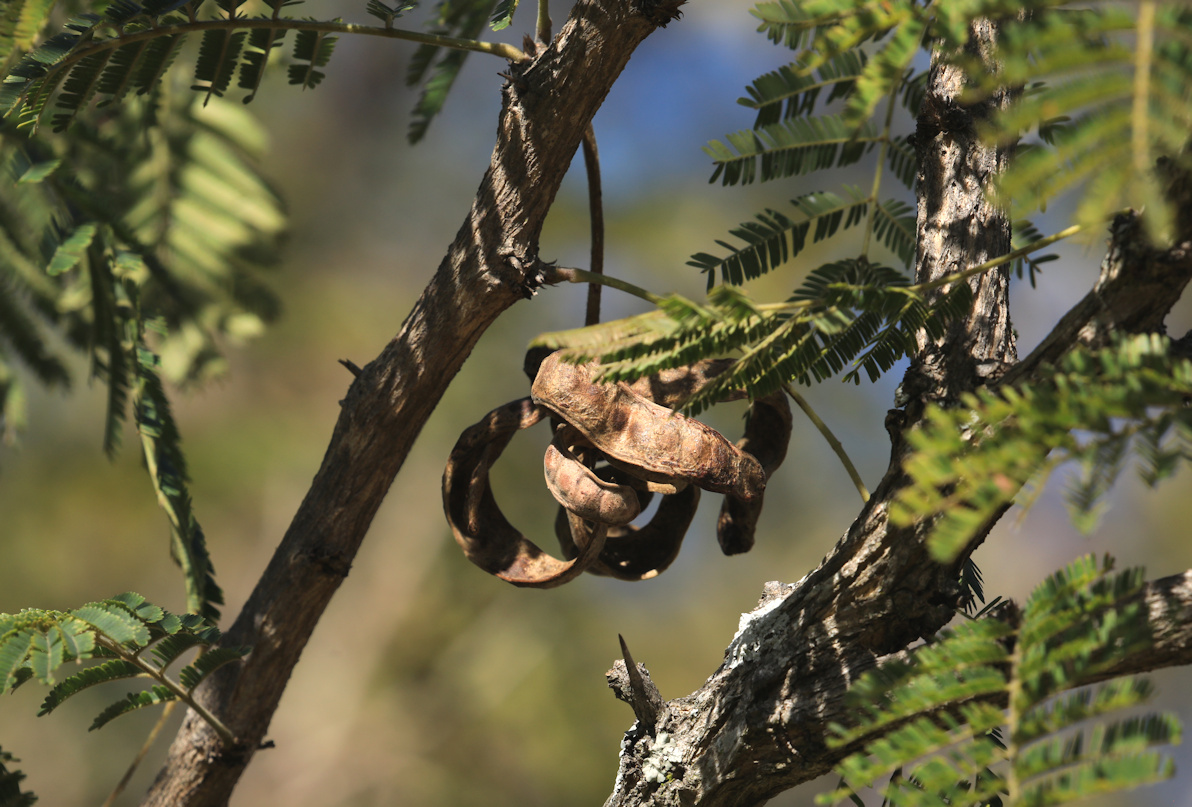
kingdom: Plantae
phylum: Tracheophyta
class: Magnoliopsida
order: Fabales
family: Fabaceae
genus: Dichrostachys
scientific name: Dichrostachys cinerea
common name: Sicklebush
